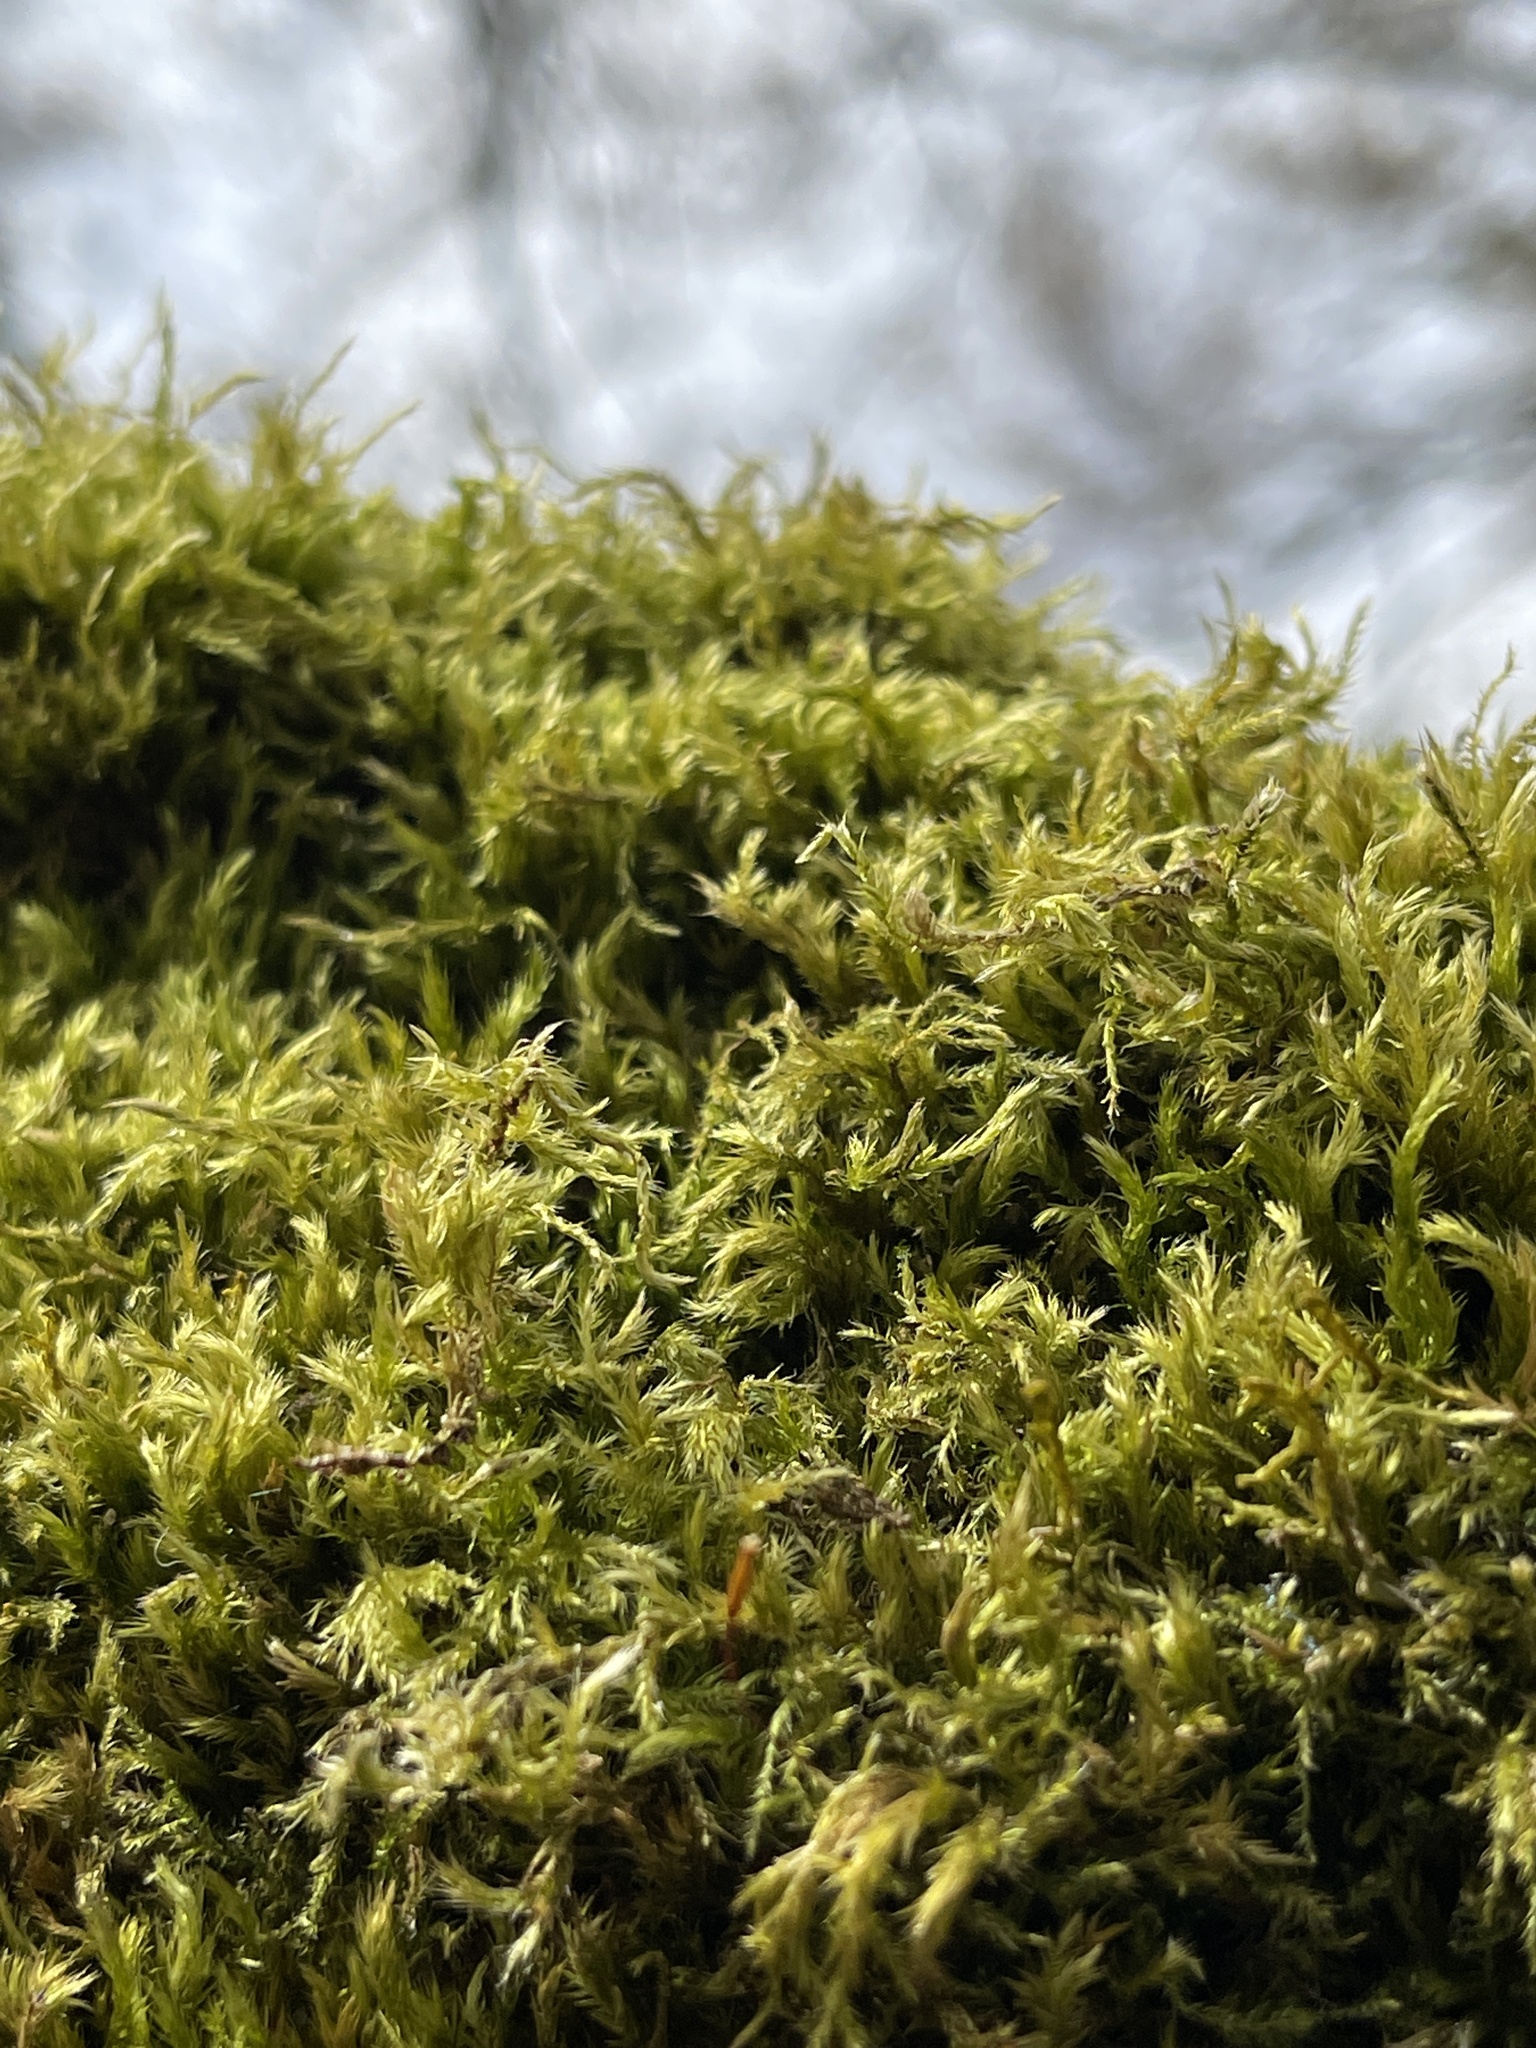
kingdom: Plantae
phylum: Bryophyta
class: Bryopsida
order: Splachnales
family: Meesiaceae
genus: Leptobryum
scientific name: Leptobryum pyriforme
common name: Golden thread moss
